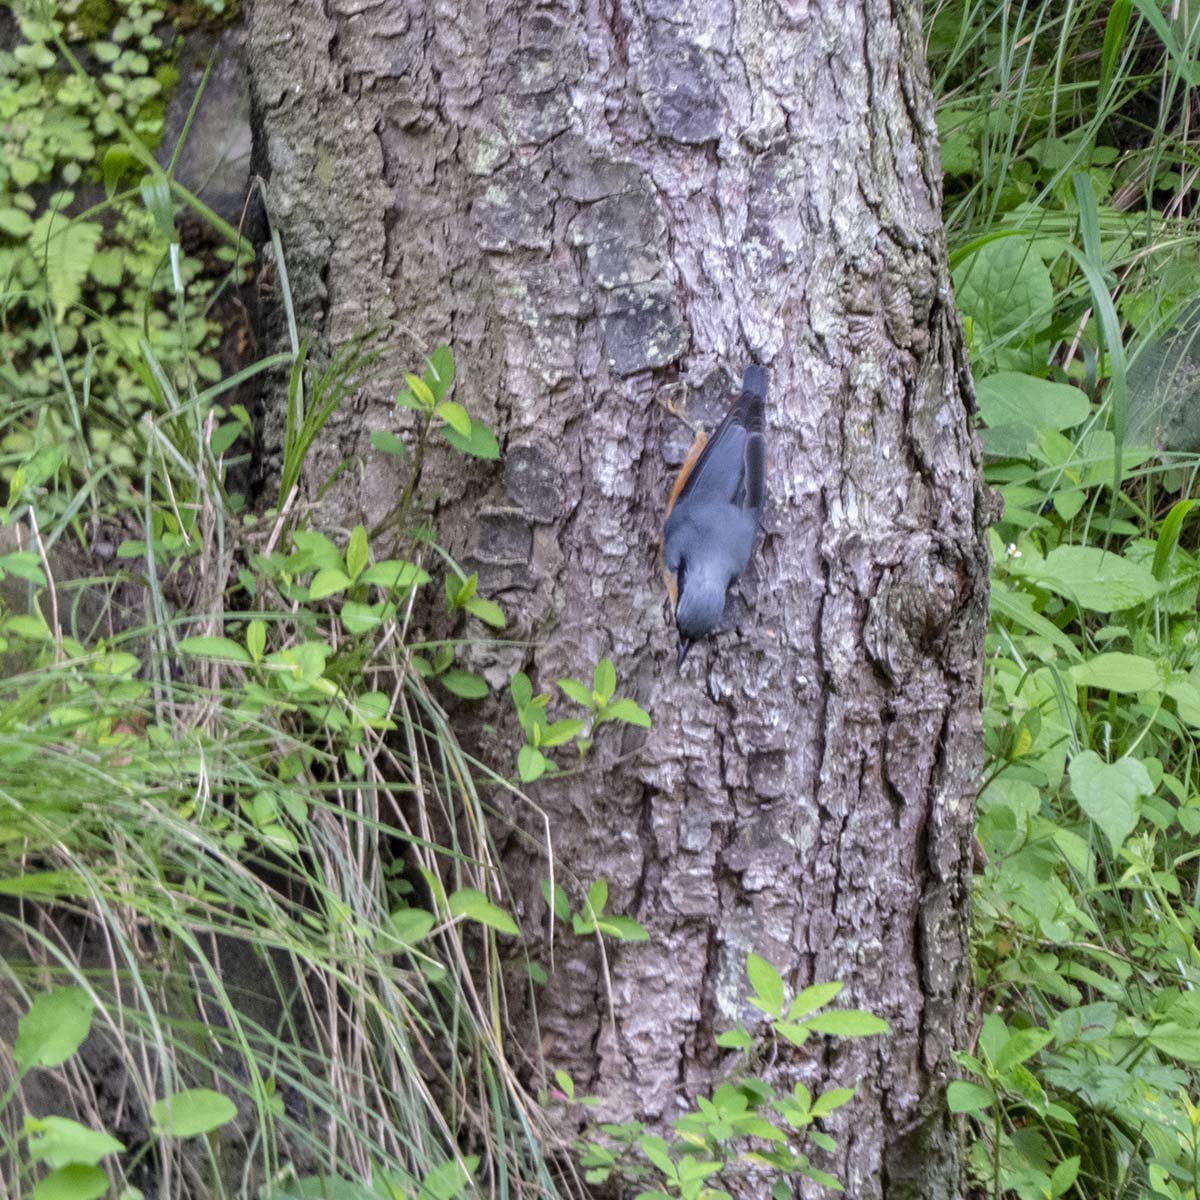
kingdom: Animalia
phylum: Chordata
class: Aves
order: Passeriformes
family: Sittidae
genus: Sitta
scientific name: Sitta cinnamoventris
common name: Chestnut-bellied nuthatch
